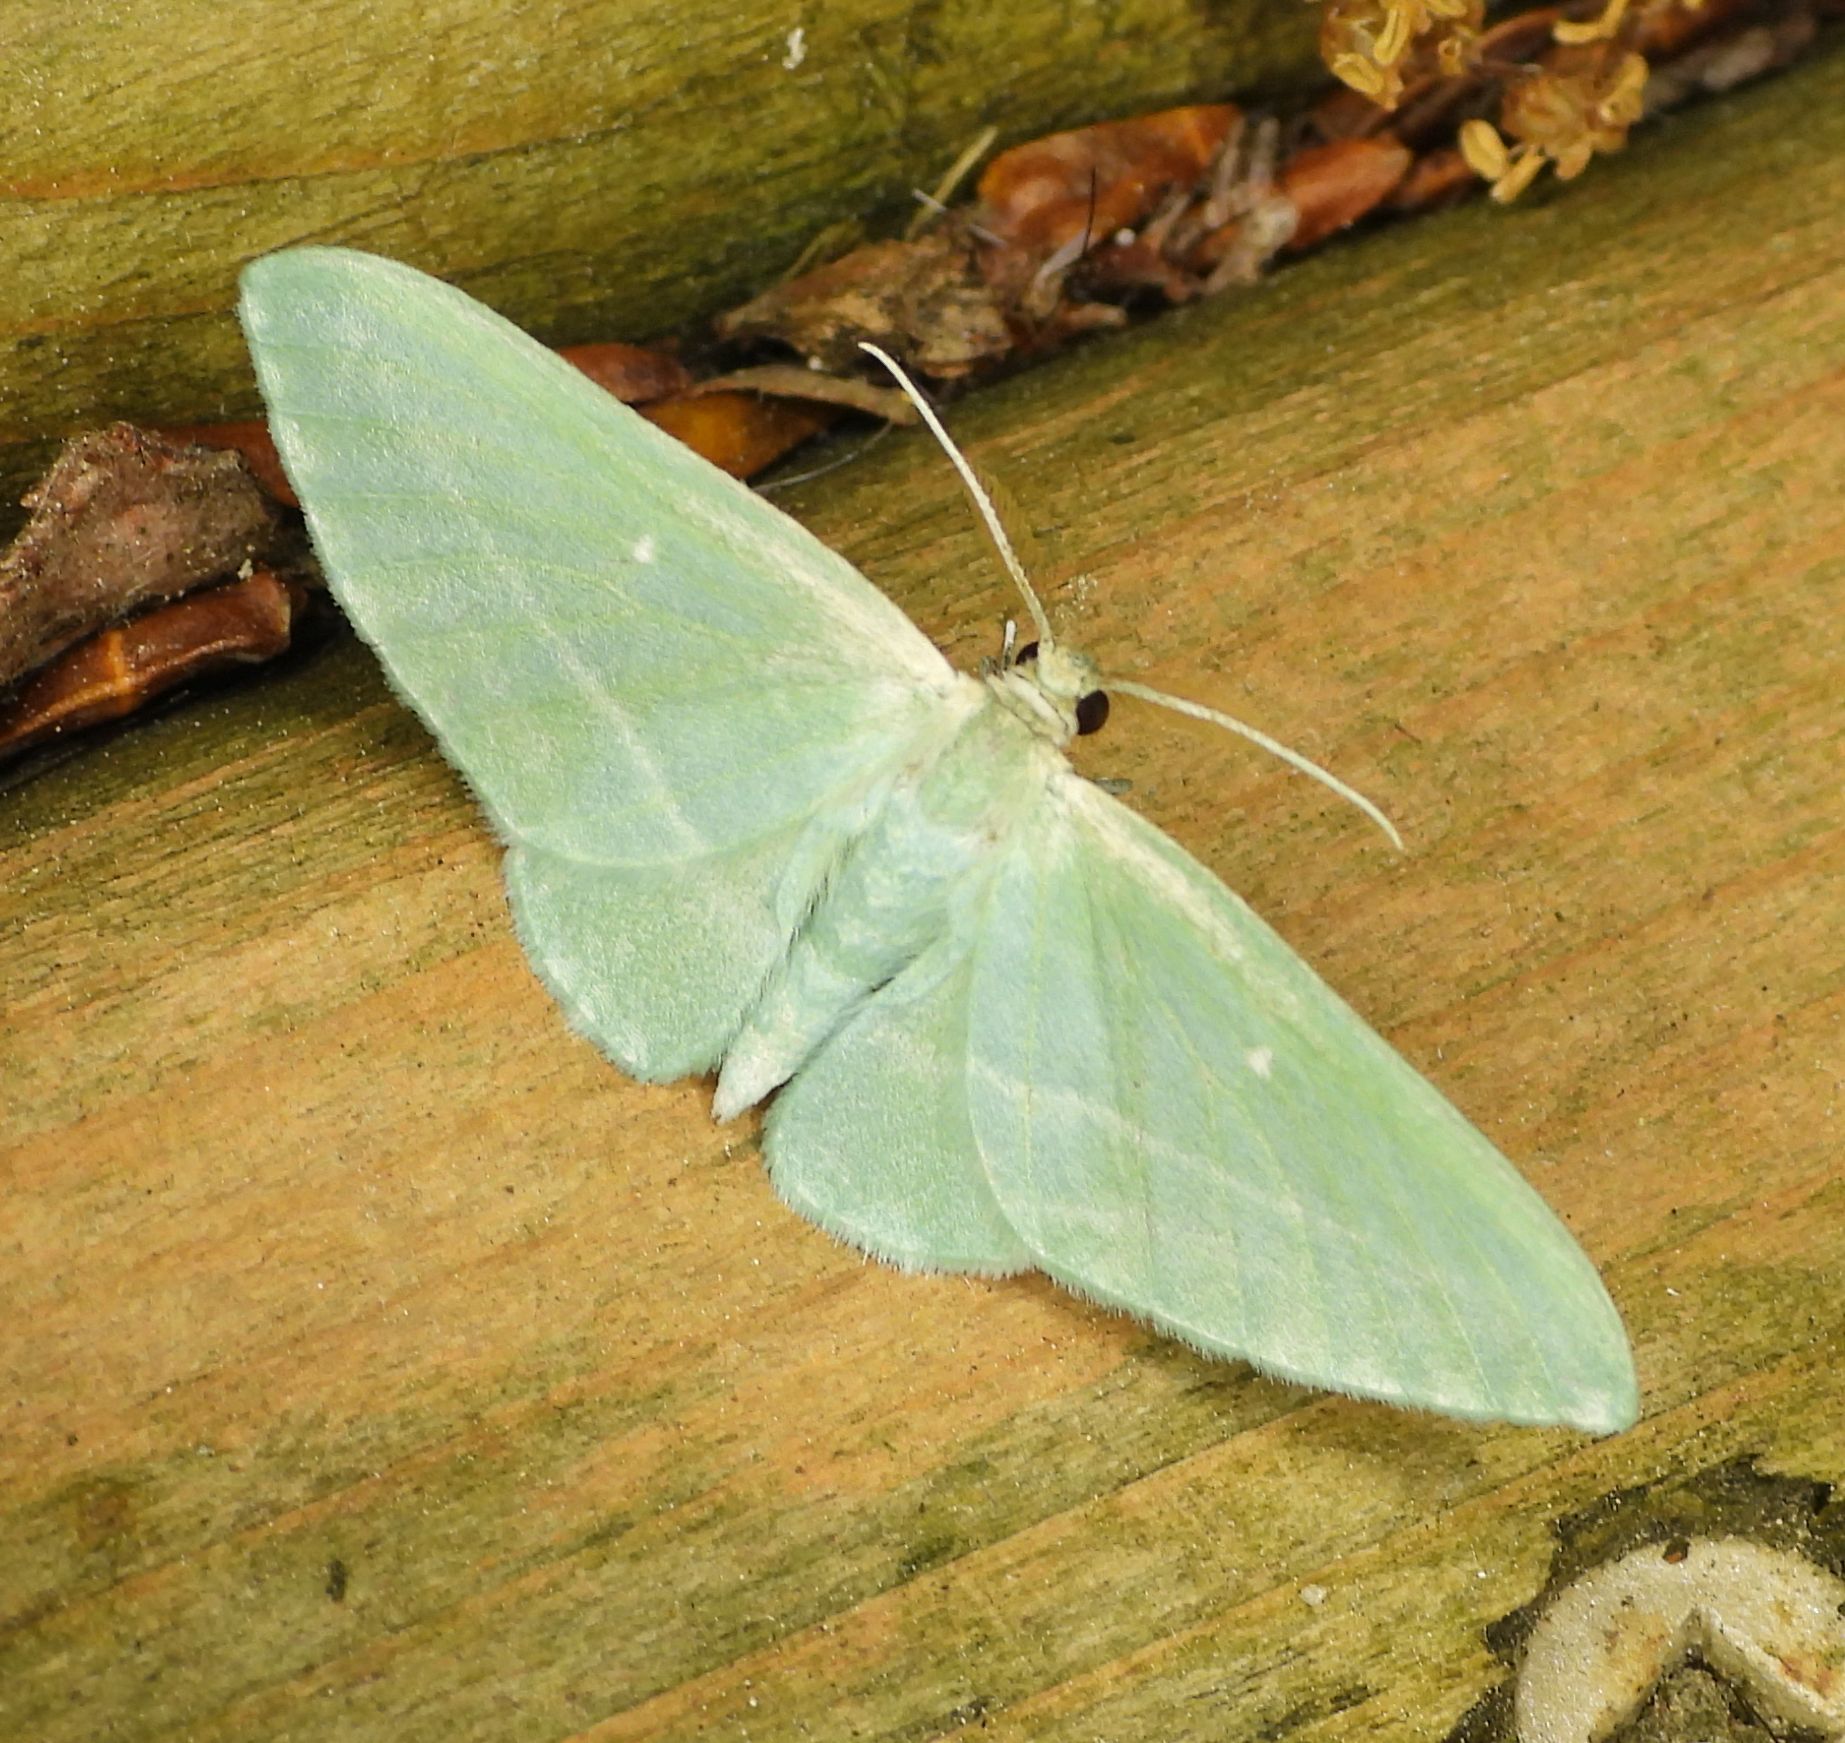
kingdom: Animalia
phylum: Arthropoda
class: Insecta
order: Lepidoptera
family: Geometridae
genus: Dyspteris
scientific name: Dyspteris abortivaria
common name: Bad-wing
